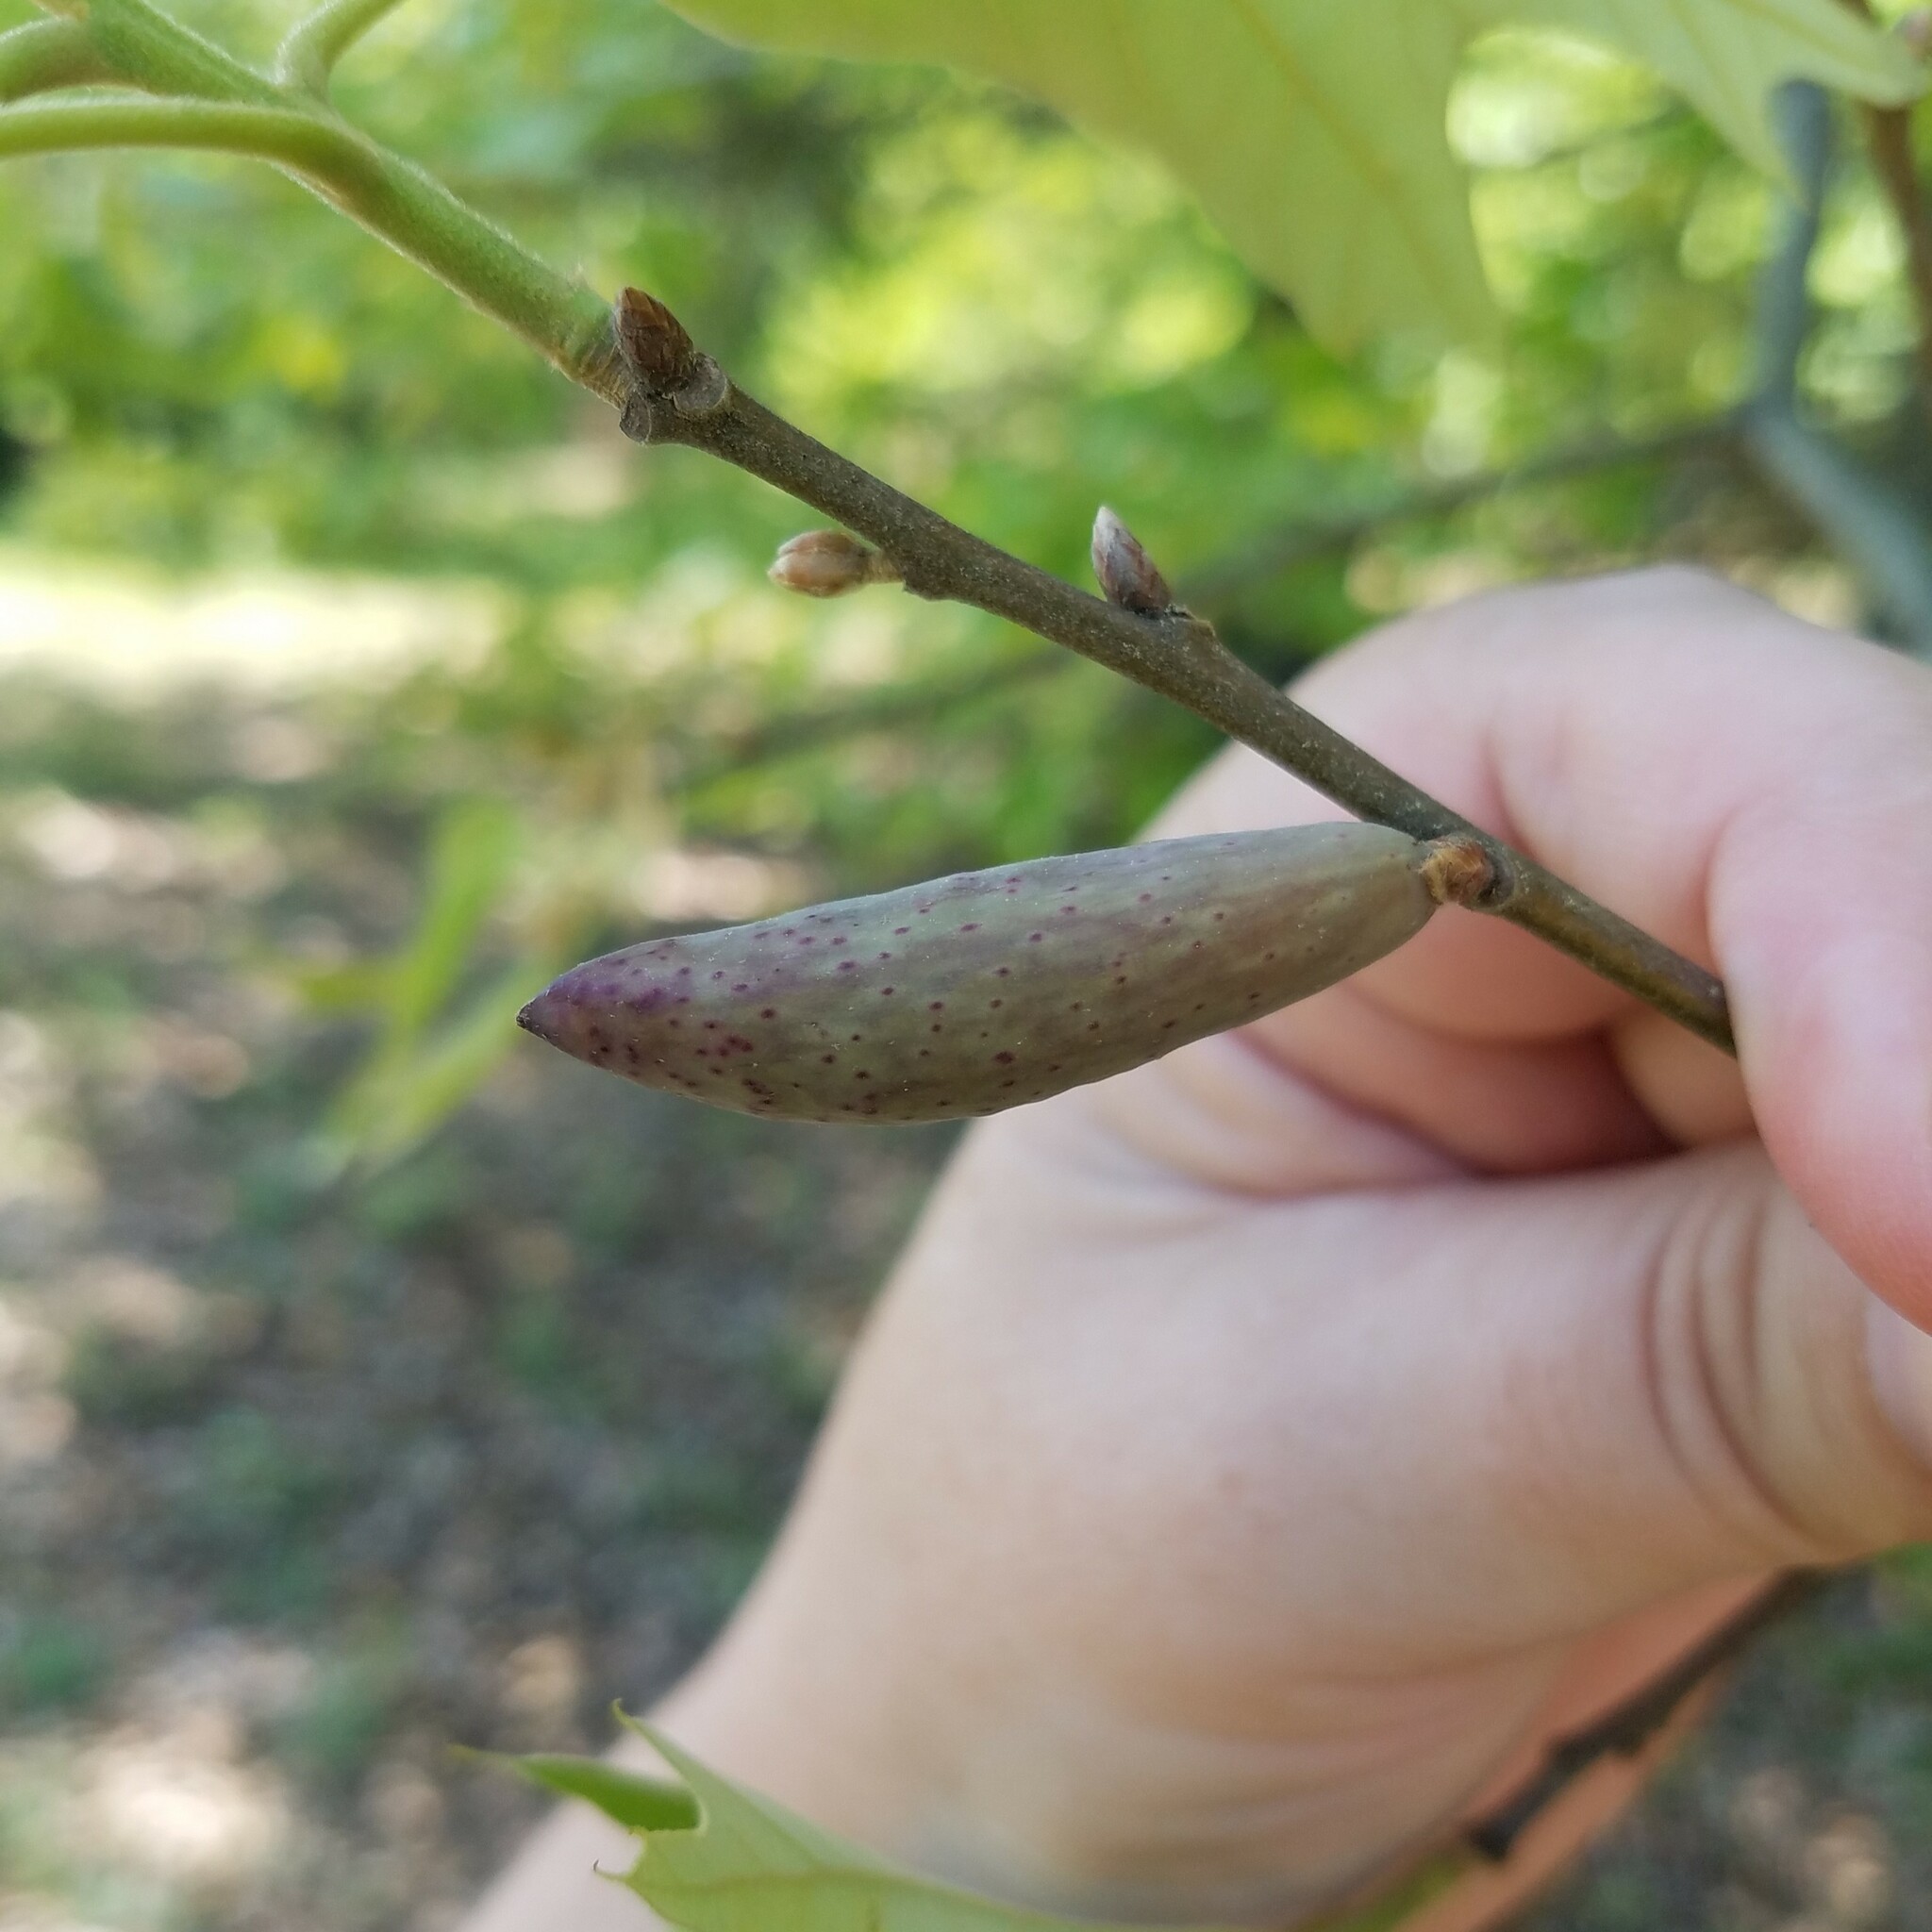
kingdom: Animalia
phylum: Arthropoda
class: Insecta
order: Hymenoptera
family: Cynipidae
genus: Amphibolips
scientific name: Amphibolips
